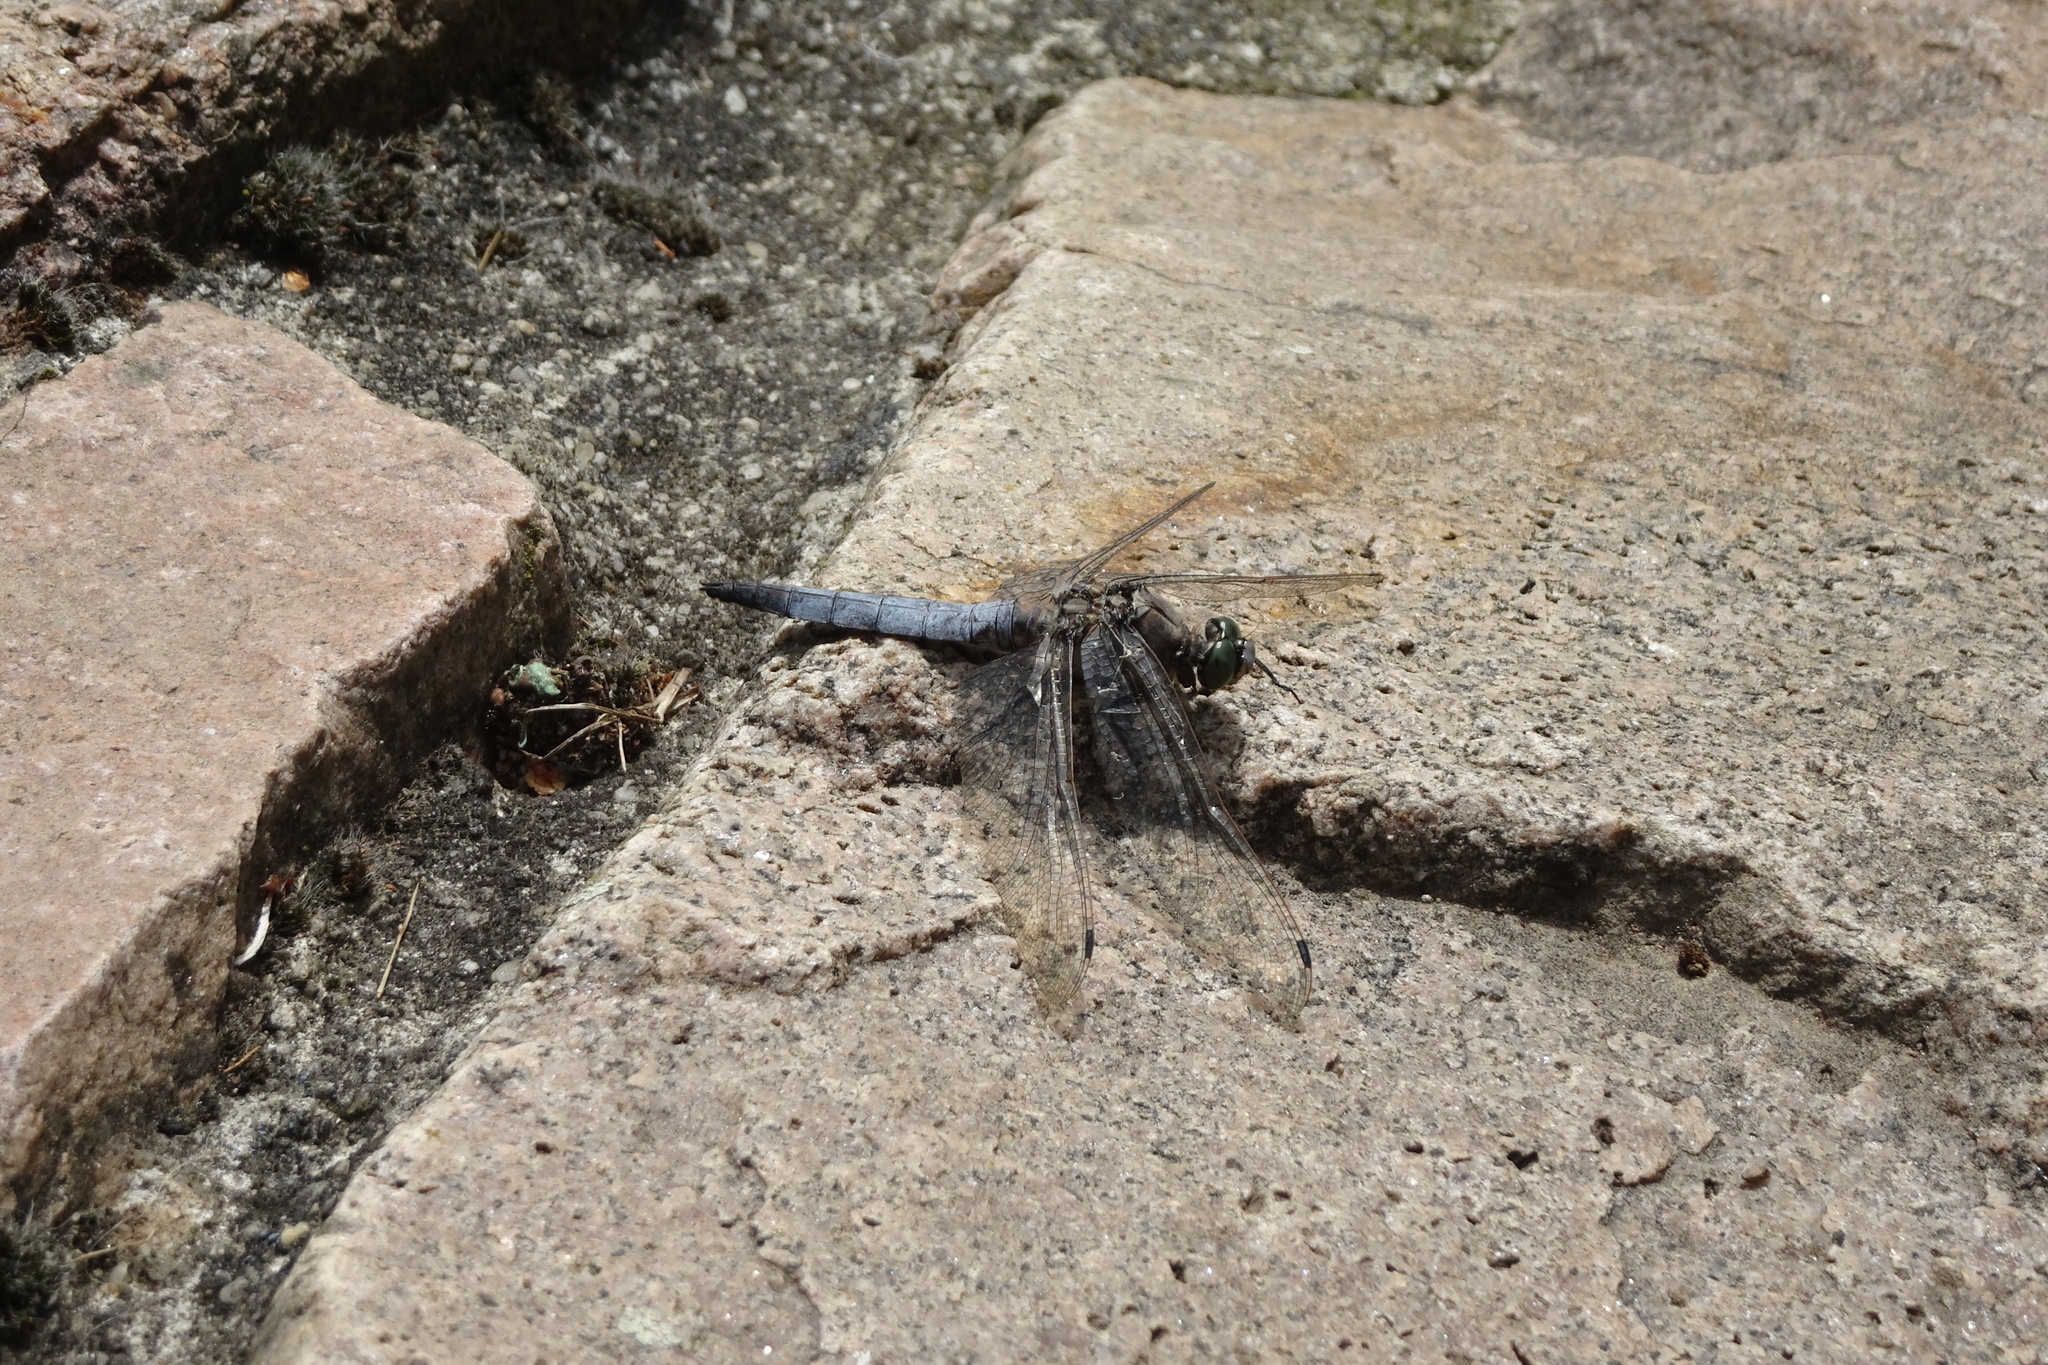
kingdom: Animalia
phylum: Arthropoda
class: Insecta
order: Odonata
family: Libellulidae
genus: Orthetrum
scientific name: Orthetrum cancellatum
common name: Black-tailed skimmer
